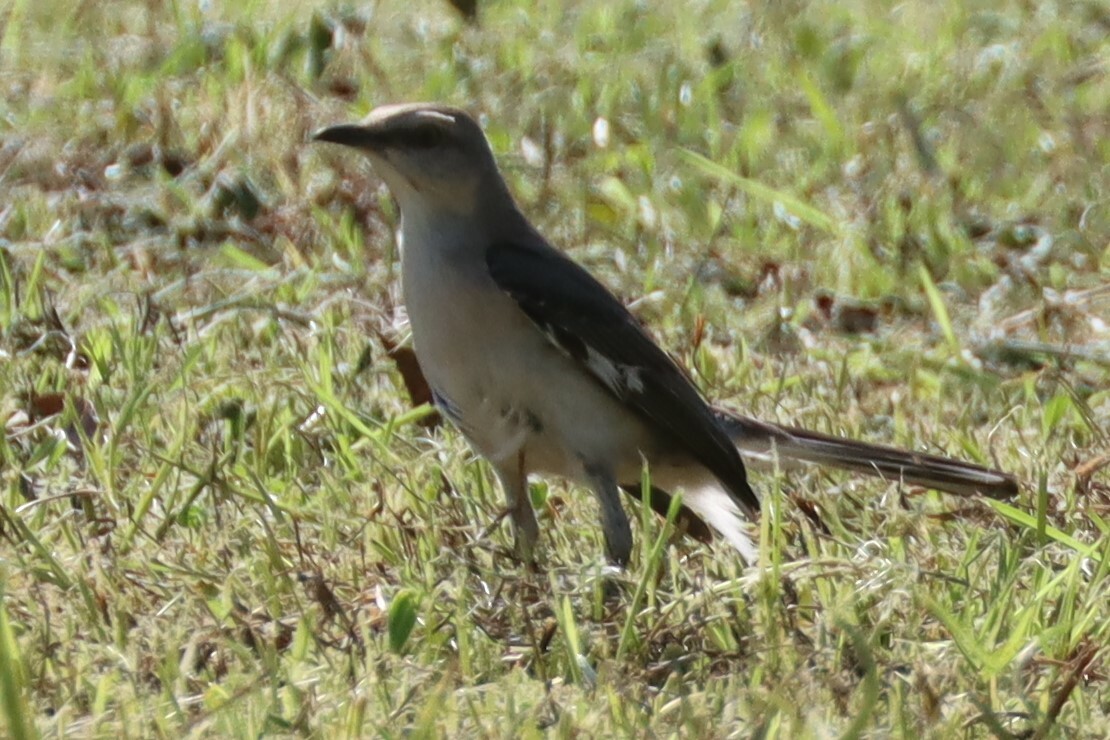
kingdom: Animalia
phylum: Chordata
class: Aves
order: Passeriformes
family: Mimidae
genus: Mimus
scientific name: Mimus polyglottos
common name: Northern mockingbird
